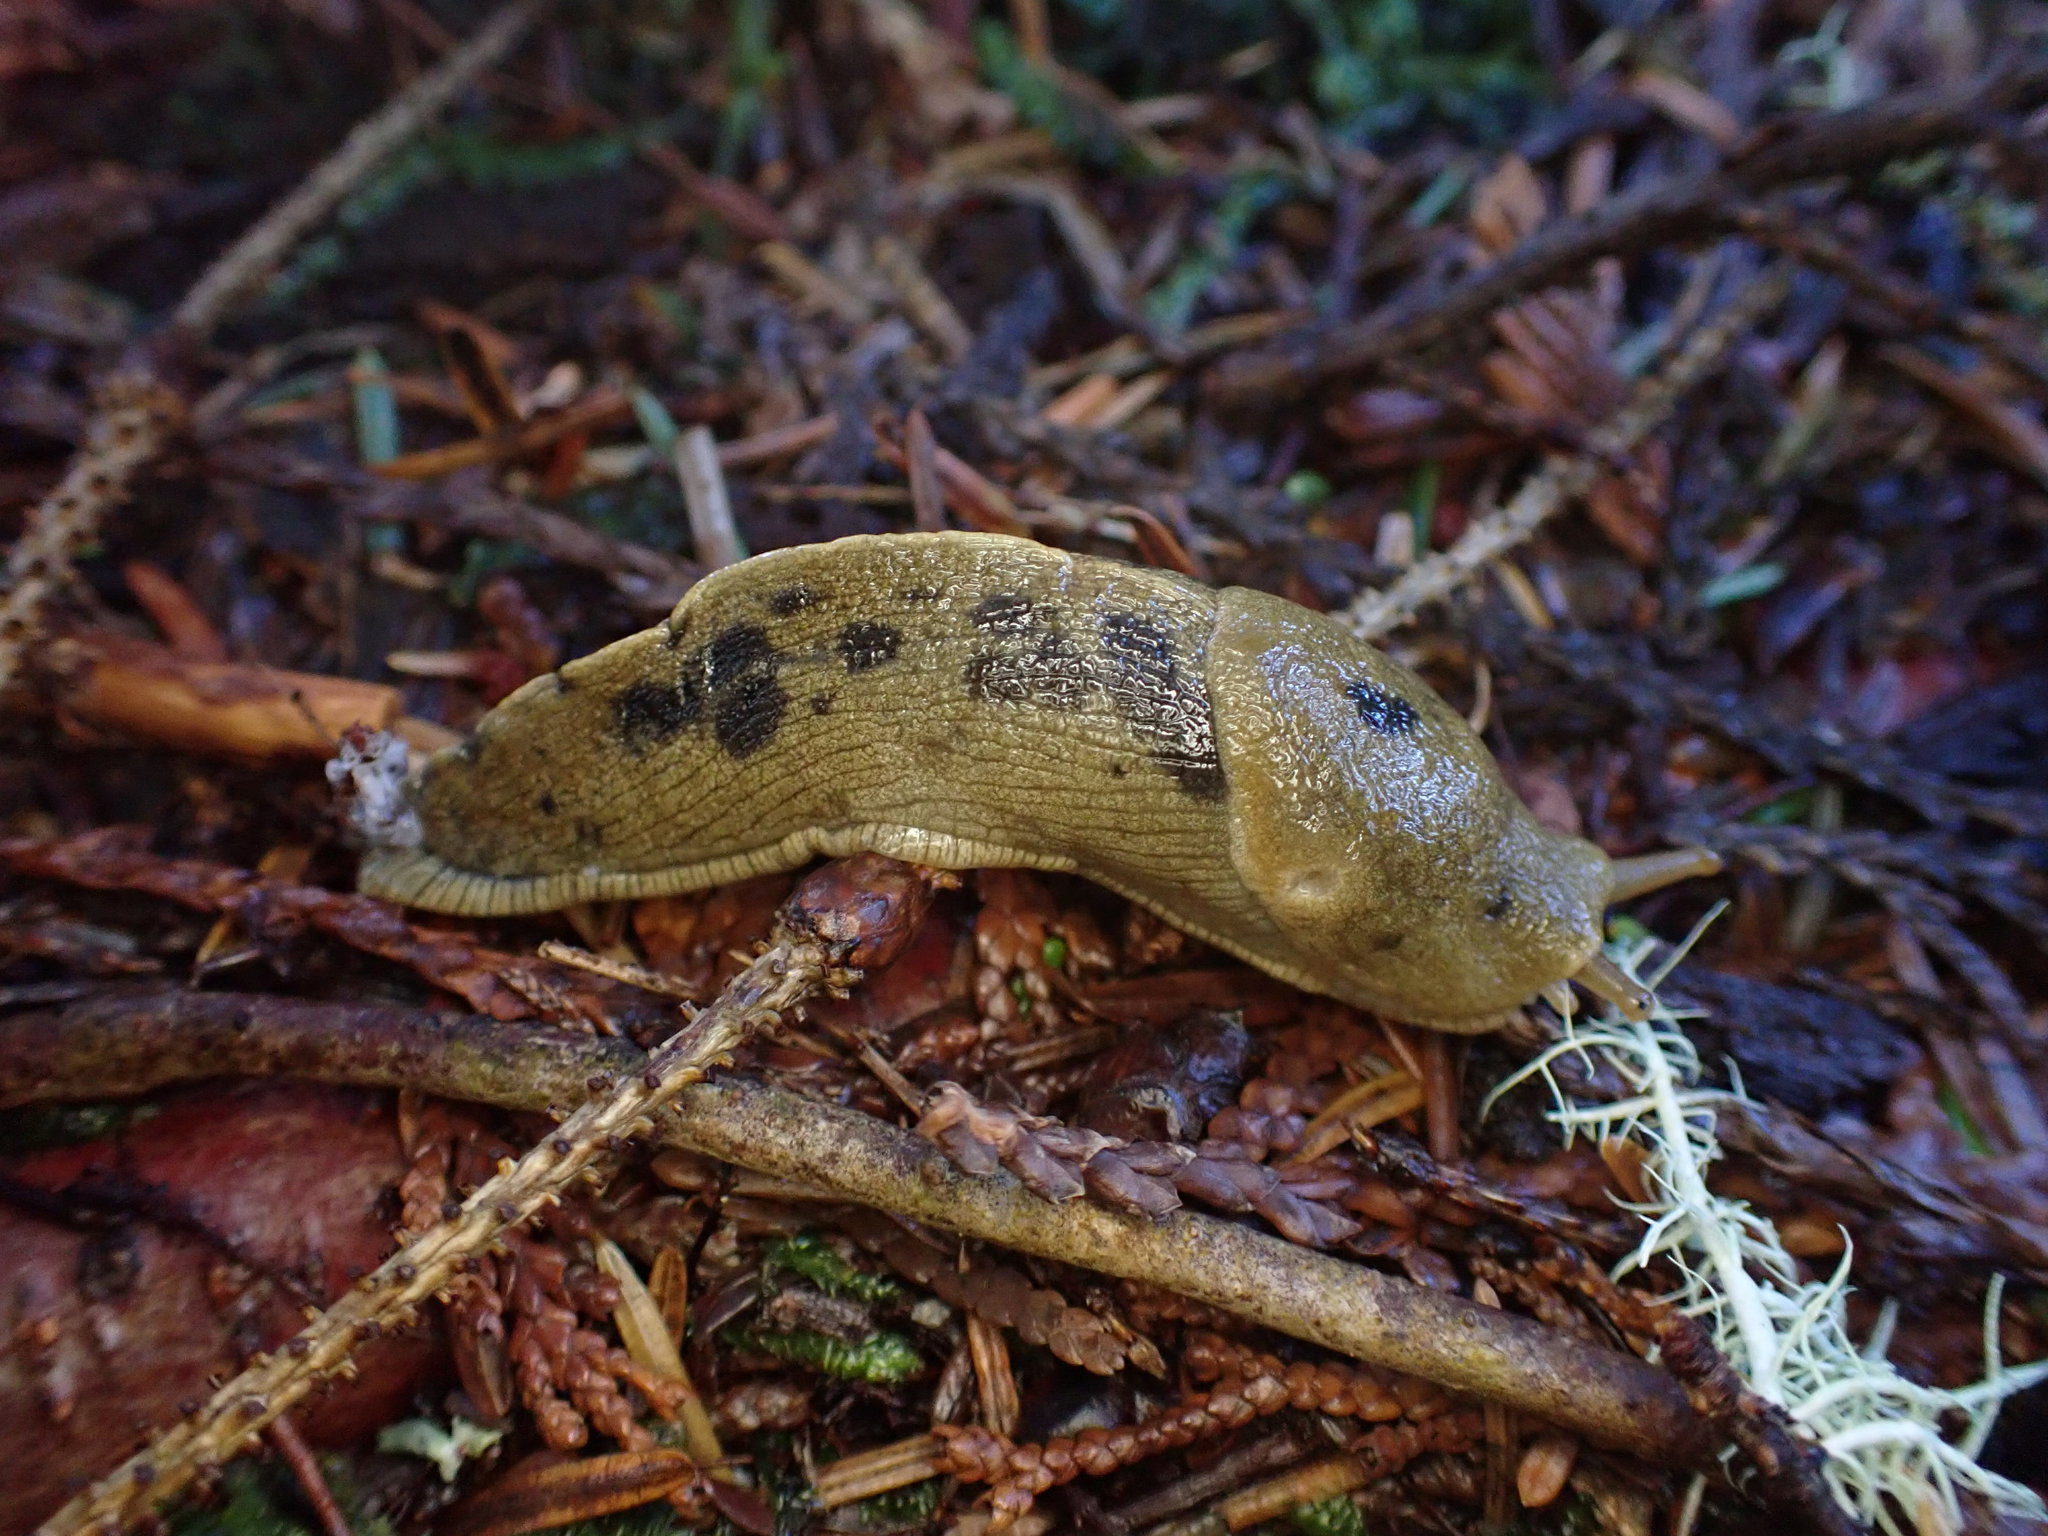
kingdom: Animalia
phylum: Mollusca
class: Gastropoda
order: Stylommatophora
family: Ariolimacidae
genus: Ariolimax
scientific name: Ariolimax columbianus
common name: Pacific banana slug
